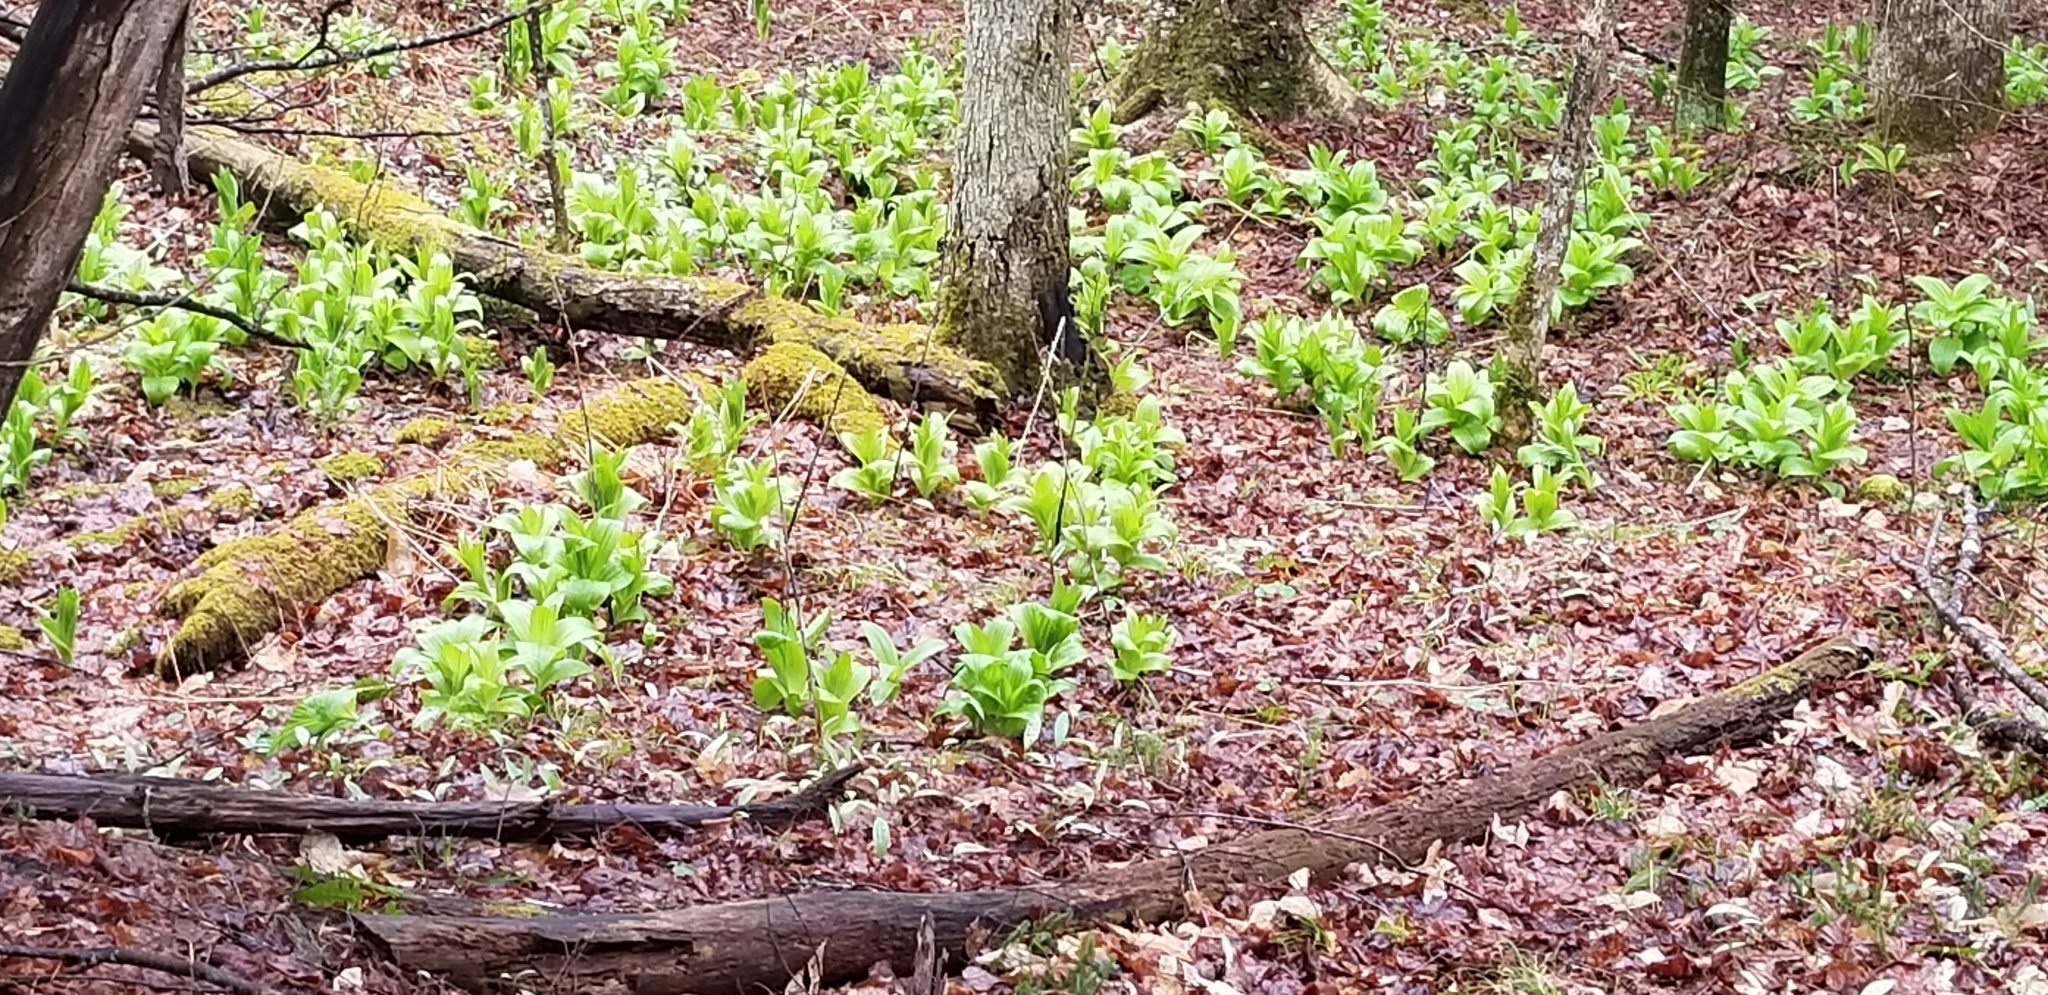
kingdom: Plantae
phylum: Tracheophyta
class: Liliopsida
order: Liliales
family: Melanthiaceae
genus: Veratrum
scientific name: Veratrum viride
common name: American false hellebore
